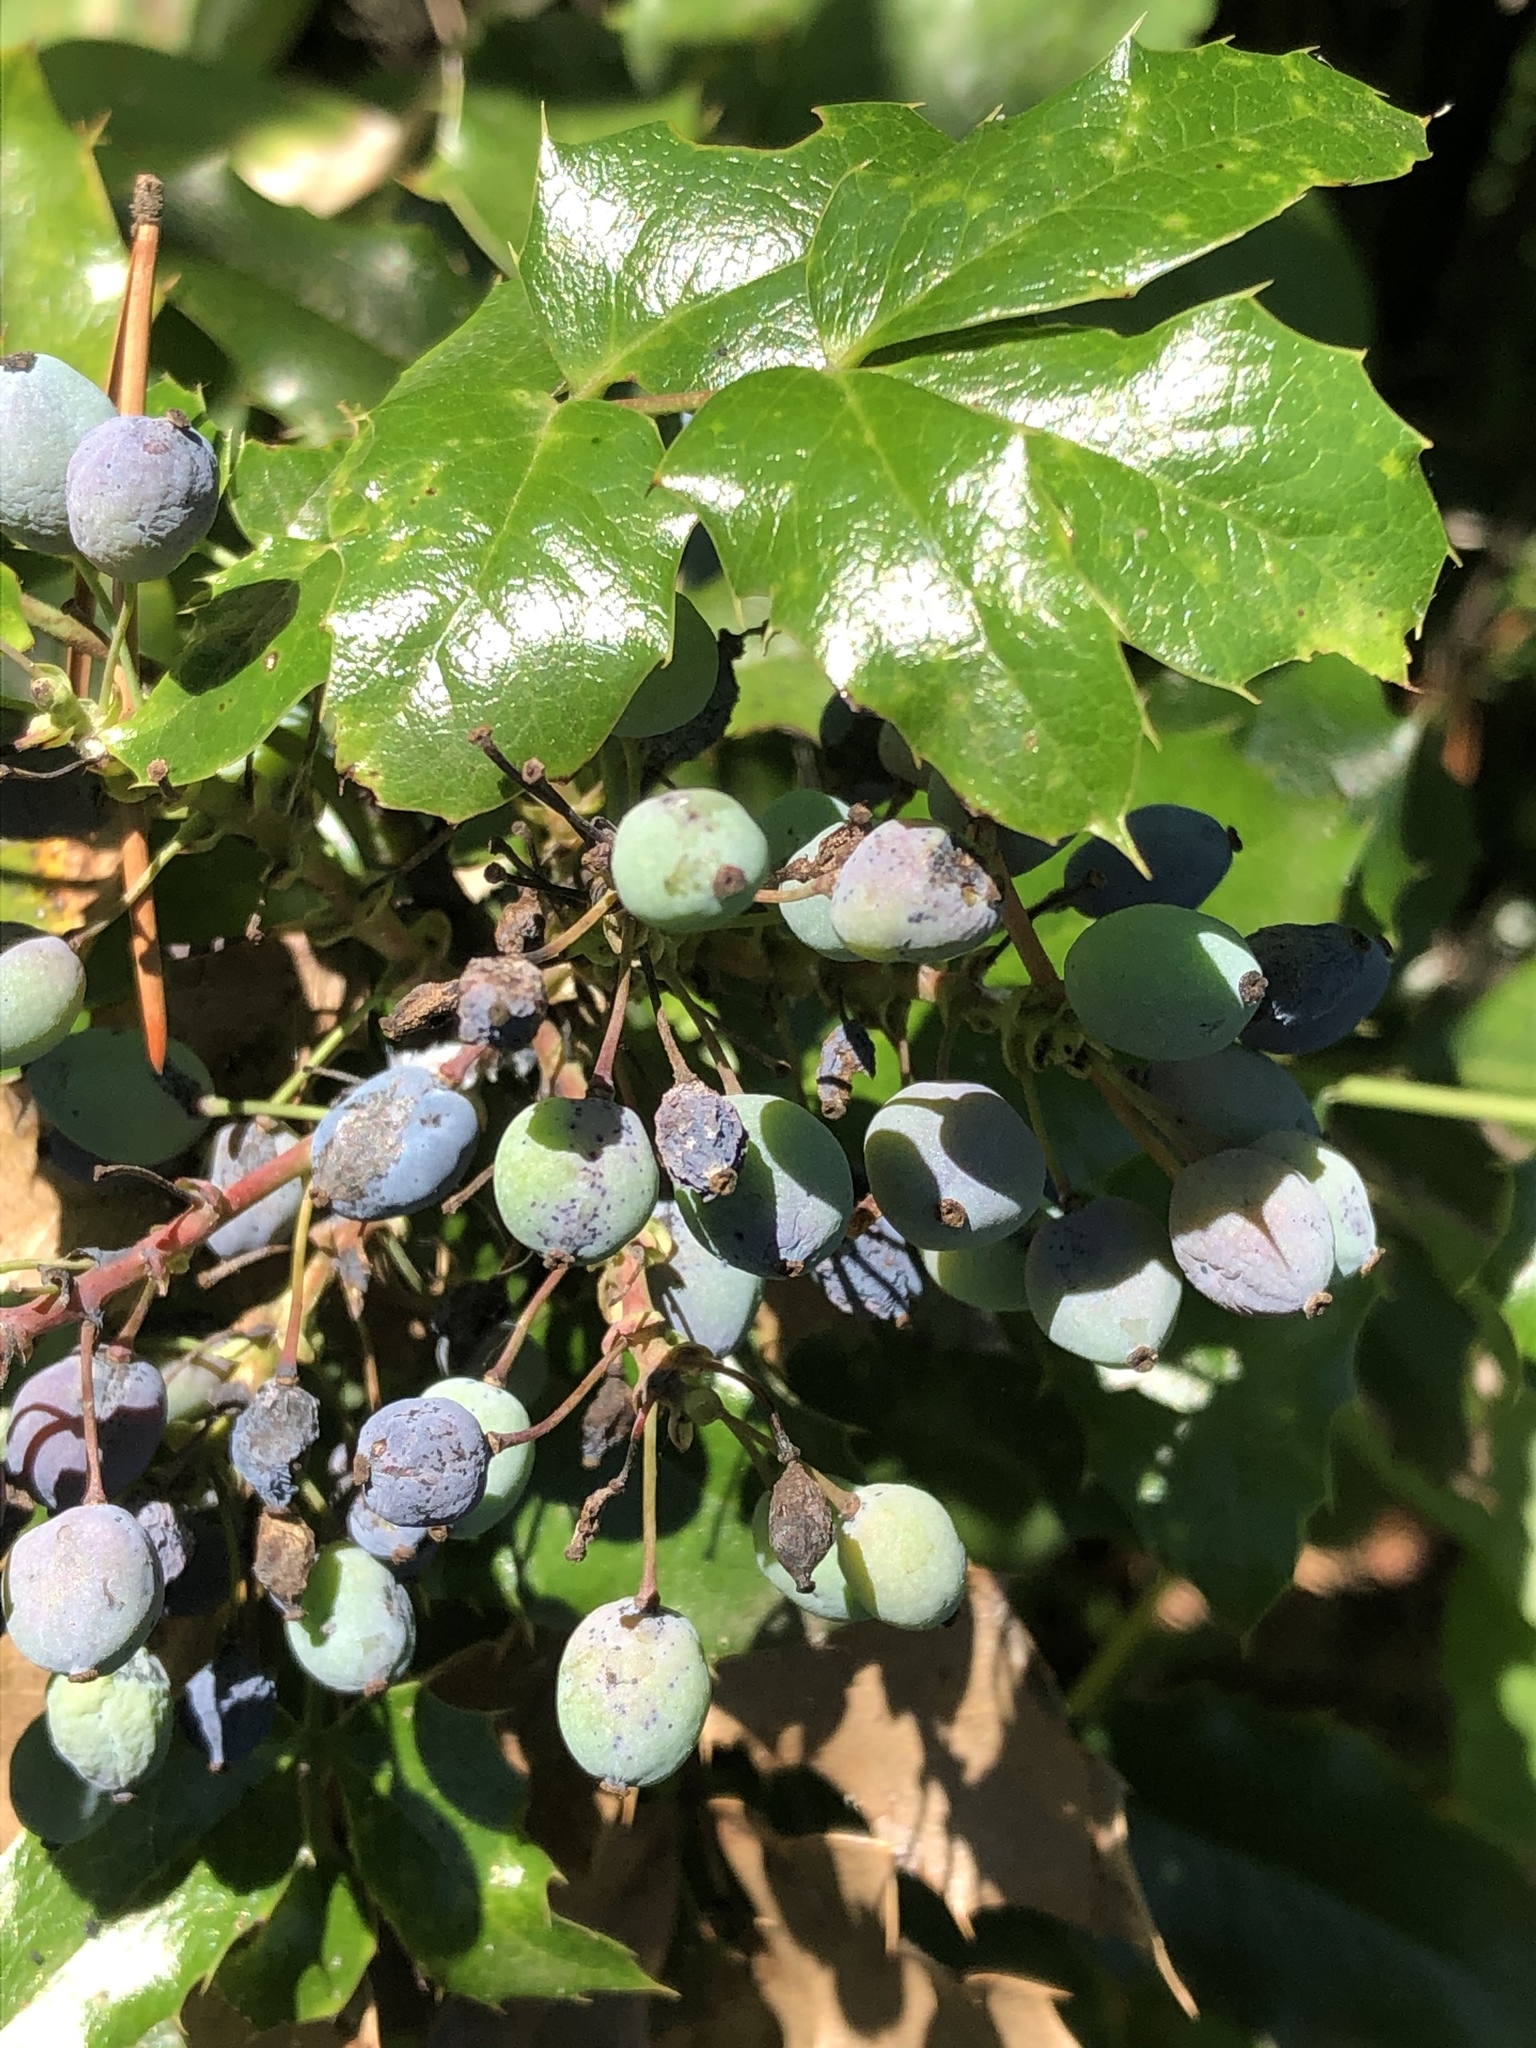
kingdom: Plantae
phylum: Tracheophyta
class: Magnoliopsida
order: Ranunculales
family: Berberidaceae
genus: Mahonia
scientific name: Mahonia aquifolium
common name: Oregon-grape
